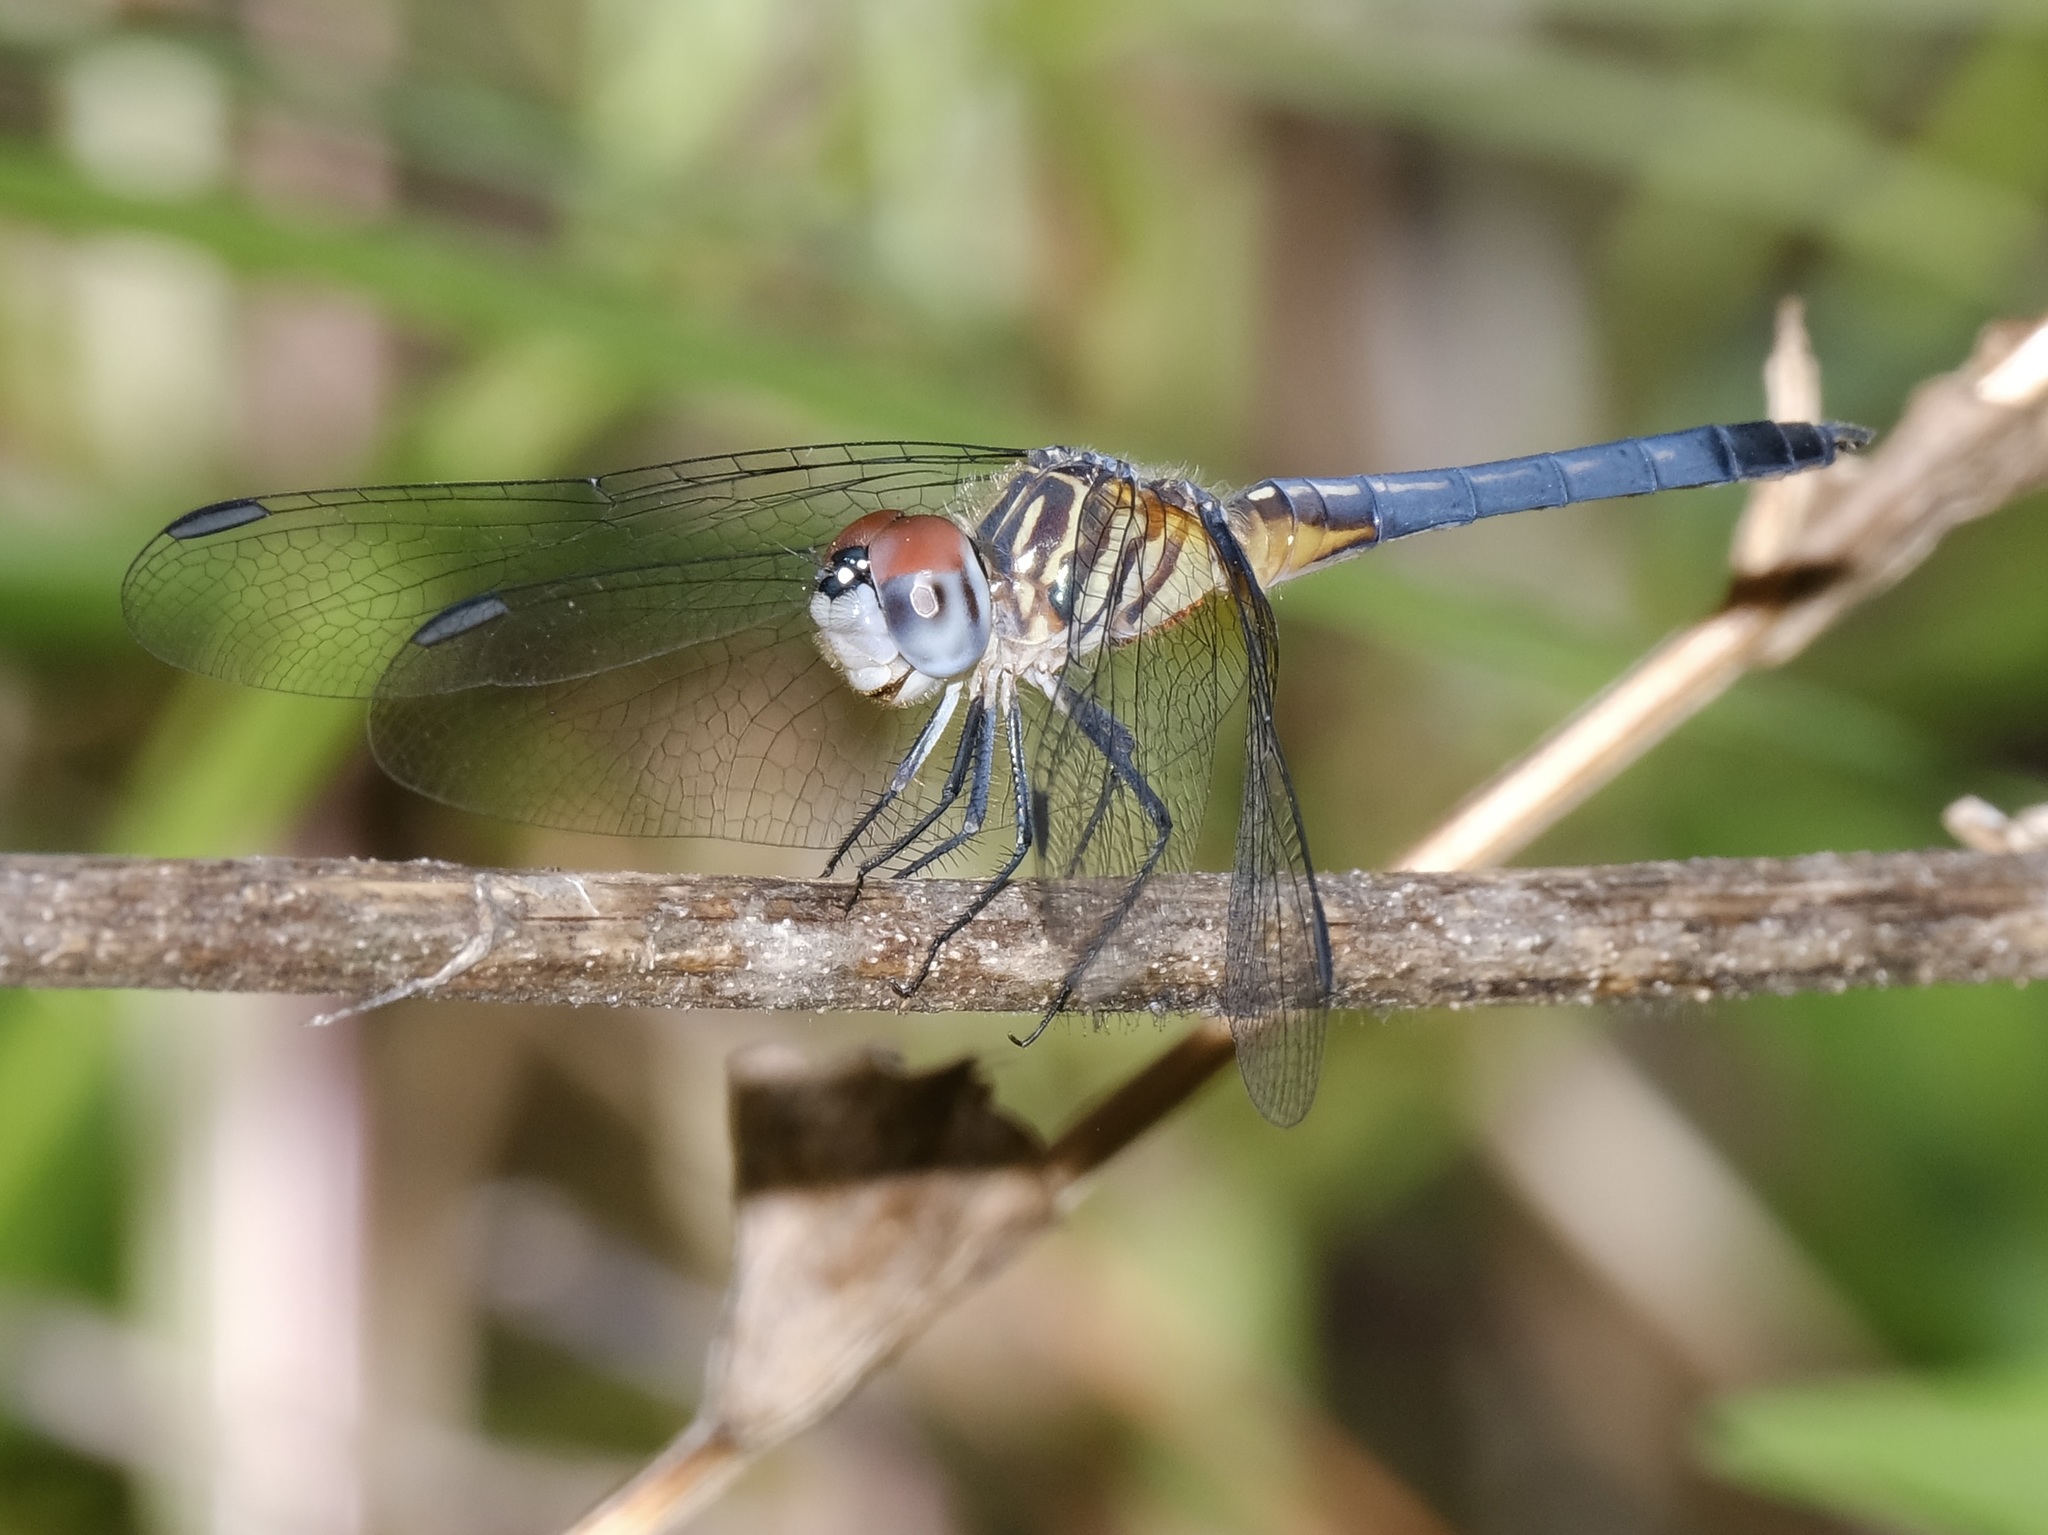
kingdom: Animalia
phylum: Arthropoda
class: Insecta
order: Odonata
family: Libellulidae
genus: Pachydiplax
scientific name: Pachydiplax longipennis
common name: Blue dasher
